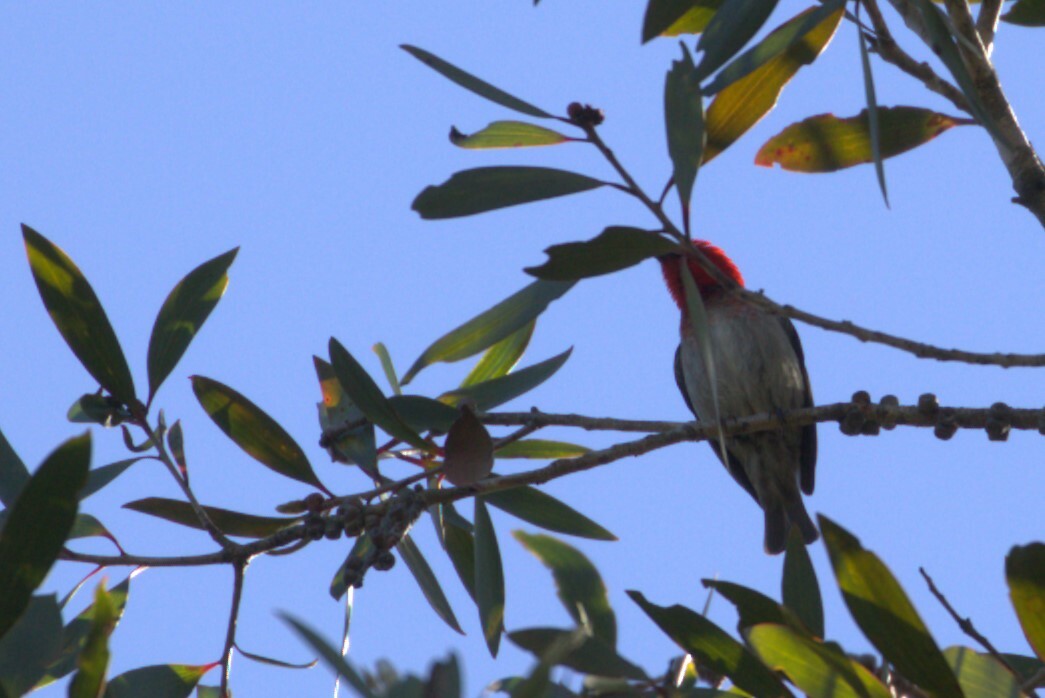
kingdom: Animalia
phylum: Chordata
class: Aves
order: Passeriformes
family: Meliphagidae
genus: Myzomela
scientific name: Myzomela sanguinolenta
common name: Scarlet myzomela
